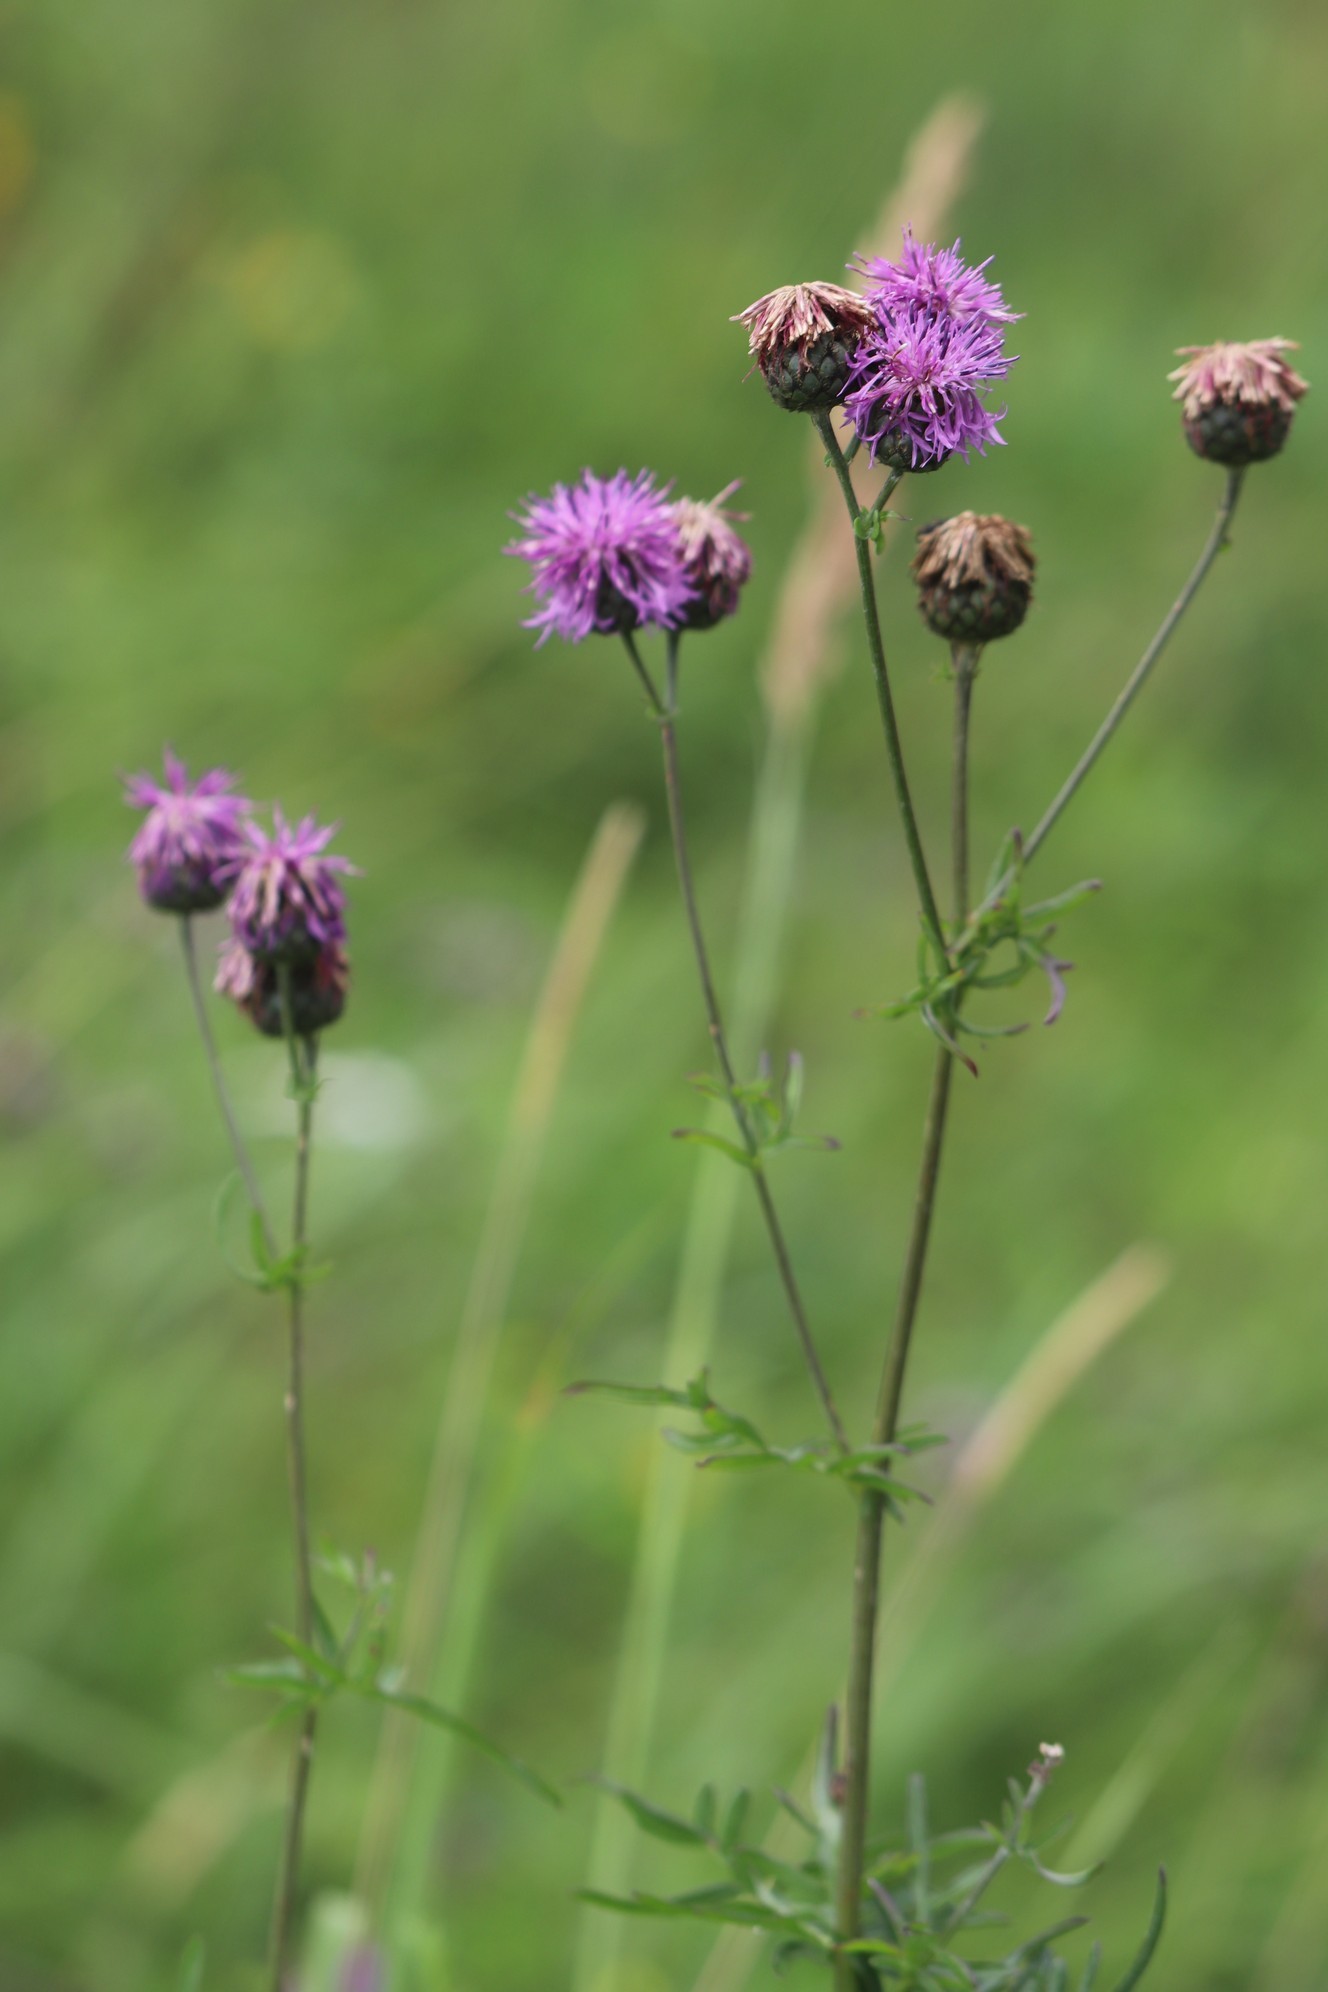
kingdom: Plantae
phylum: Tracheophyta
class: Magnoliopsida
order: Asterales
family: Asteraceae
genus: Centaurea
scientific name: Centaurea scabiosa
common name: Greater knapweed
